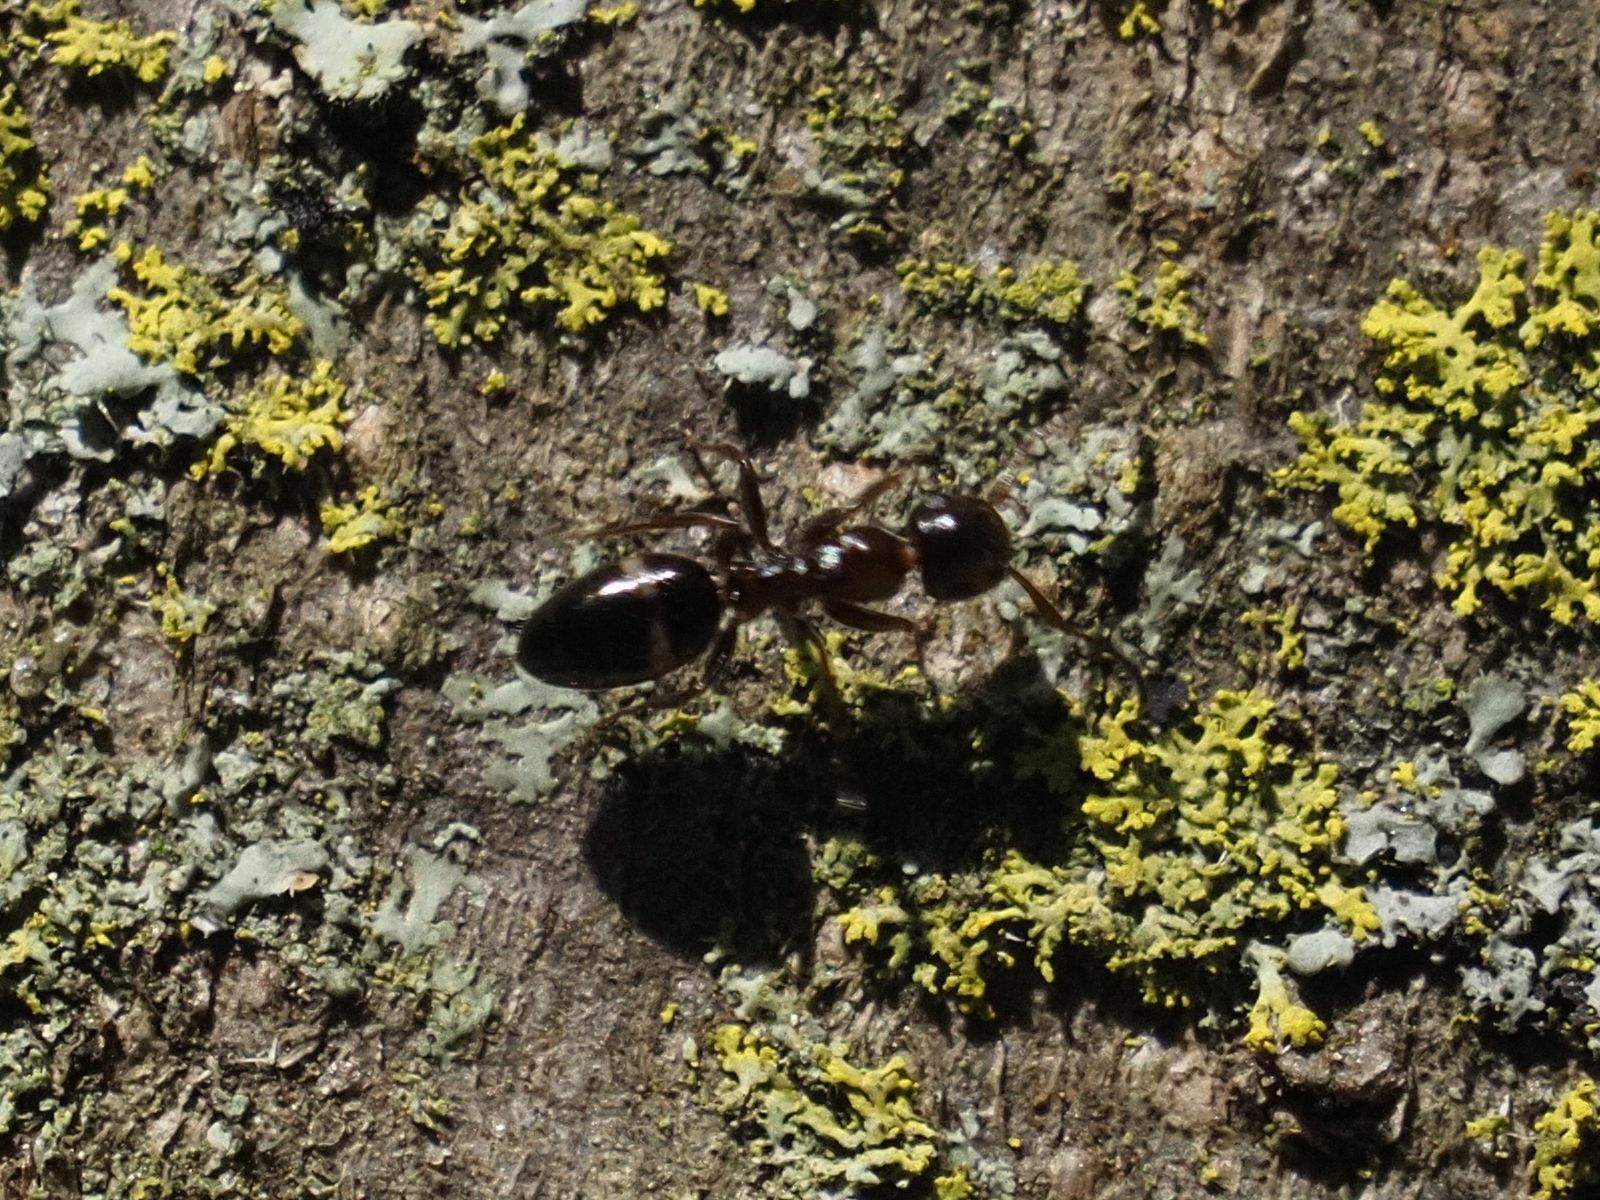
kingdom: Animalia
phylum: Arthropoda
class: Insecta
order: Hymenoptera
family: Formicidae
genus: Camponotus
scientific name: Camponotus truncatus
